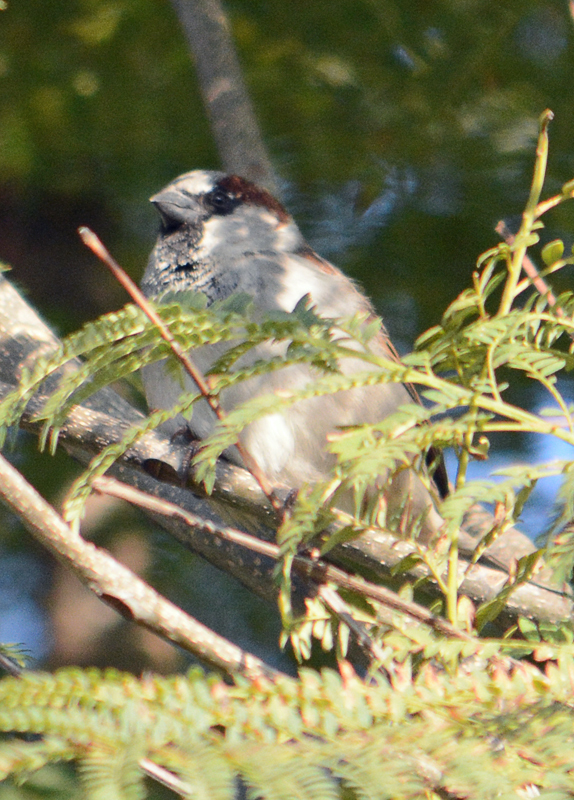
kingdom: Animalia
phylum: Chordata
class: Aves
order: Passeriformes
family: Passeridae
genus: Passer
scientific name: Passer domesticus
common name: House sparrow
